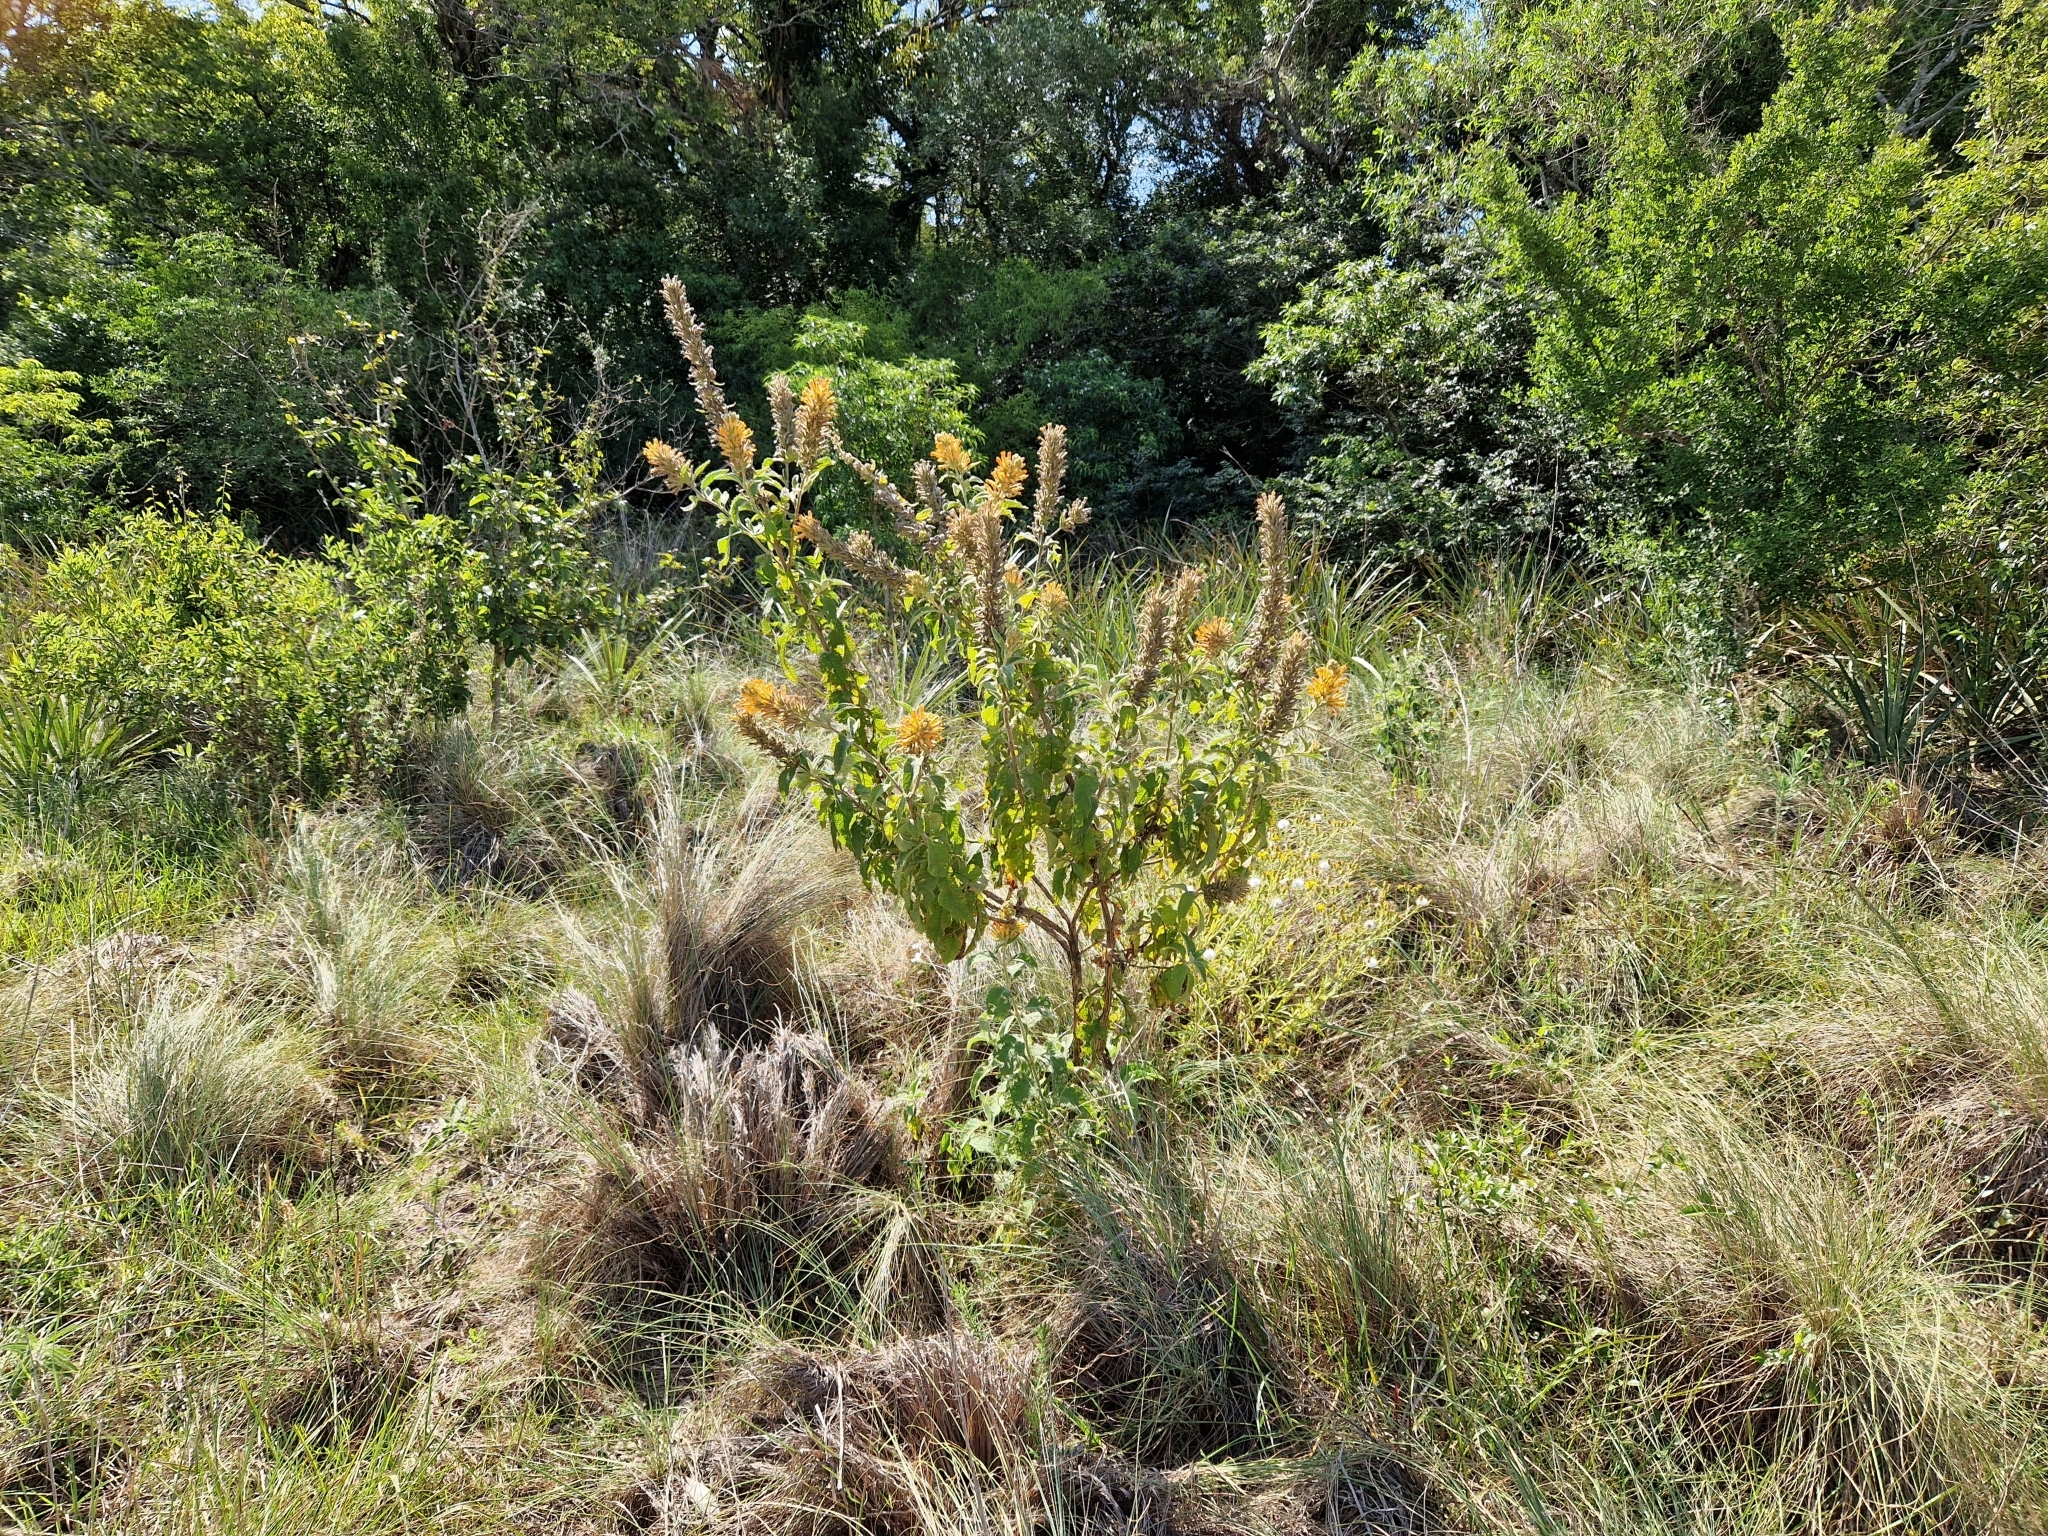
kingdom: Plantae
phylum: Tracheophyta
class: Magnoliopsida
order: Lamiales
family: Scrophulariaceae
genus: Buddleja
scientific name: Buddleja tubiflora
